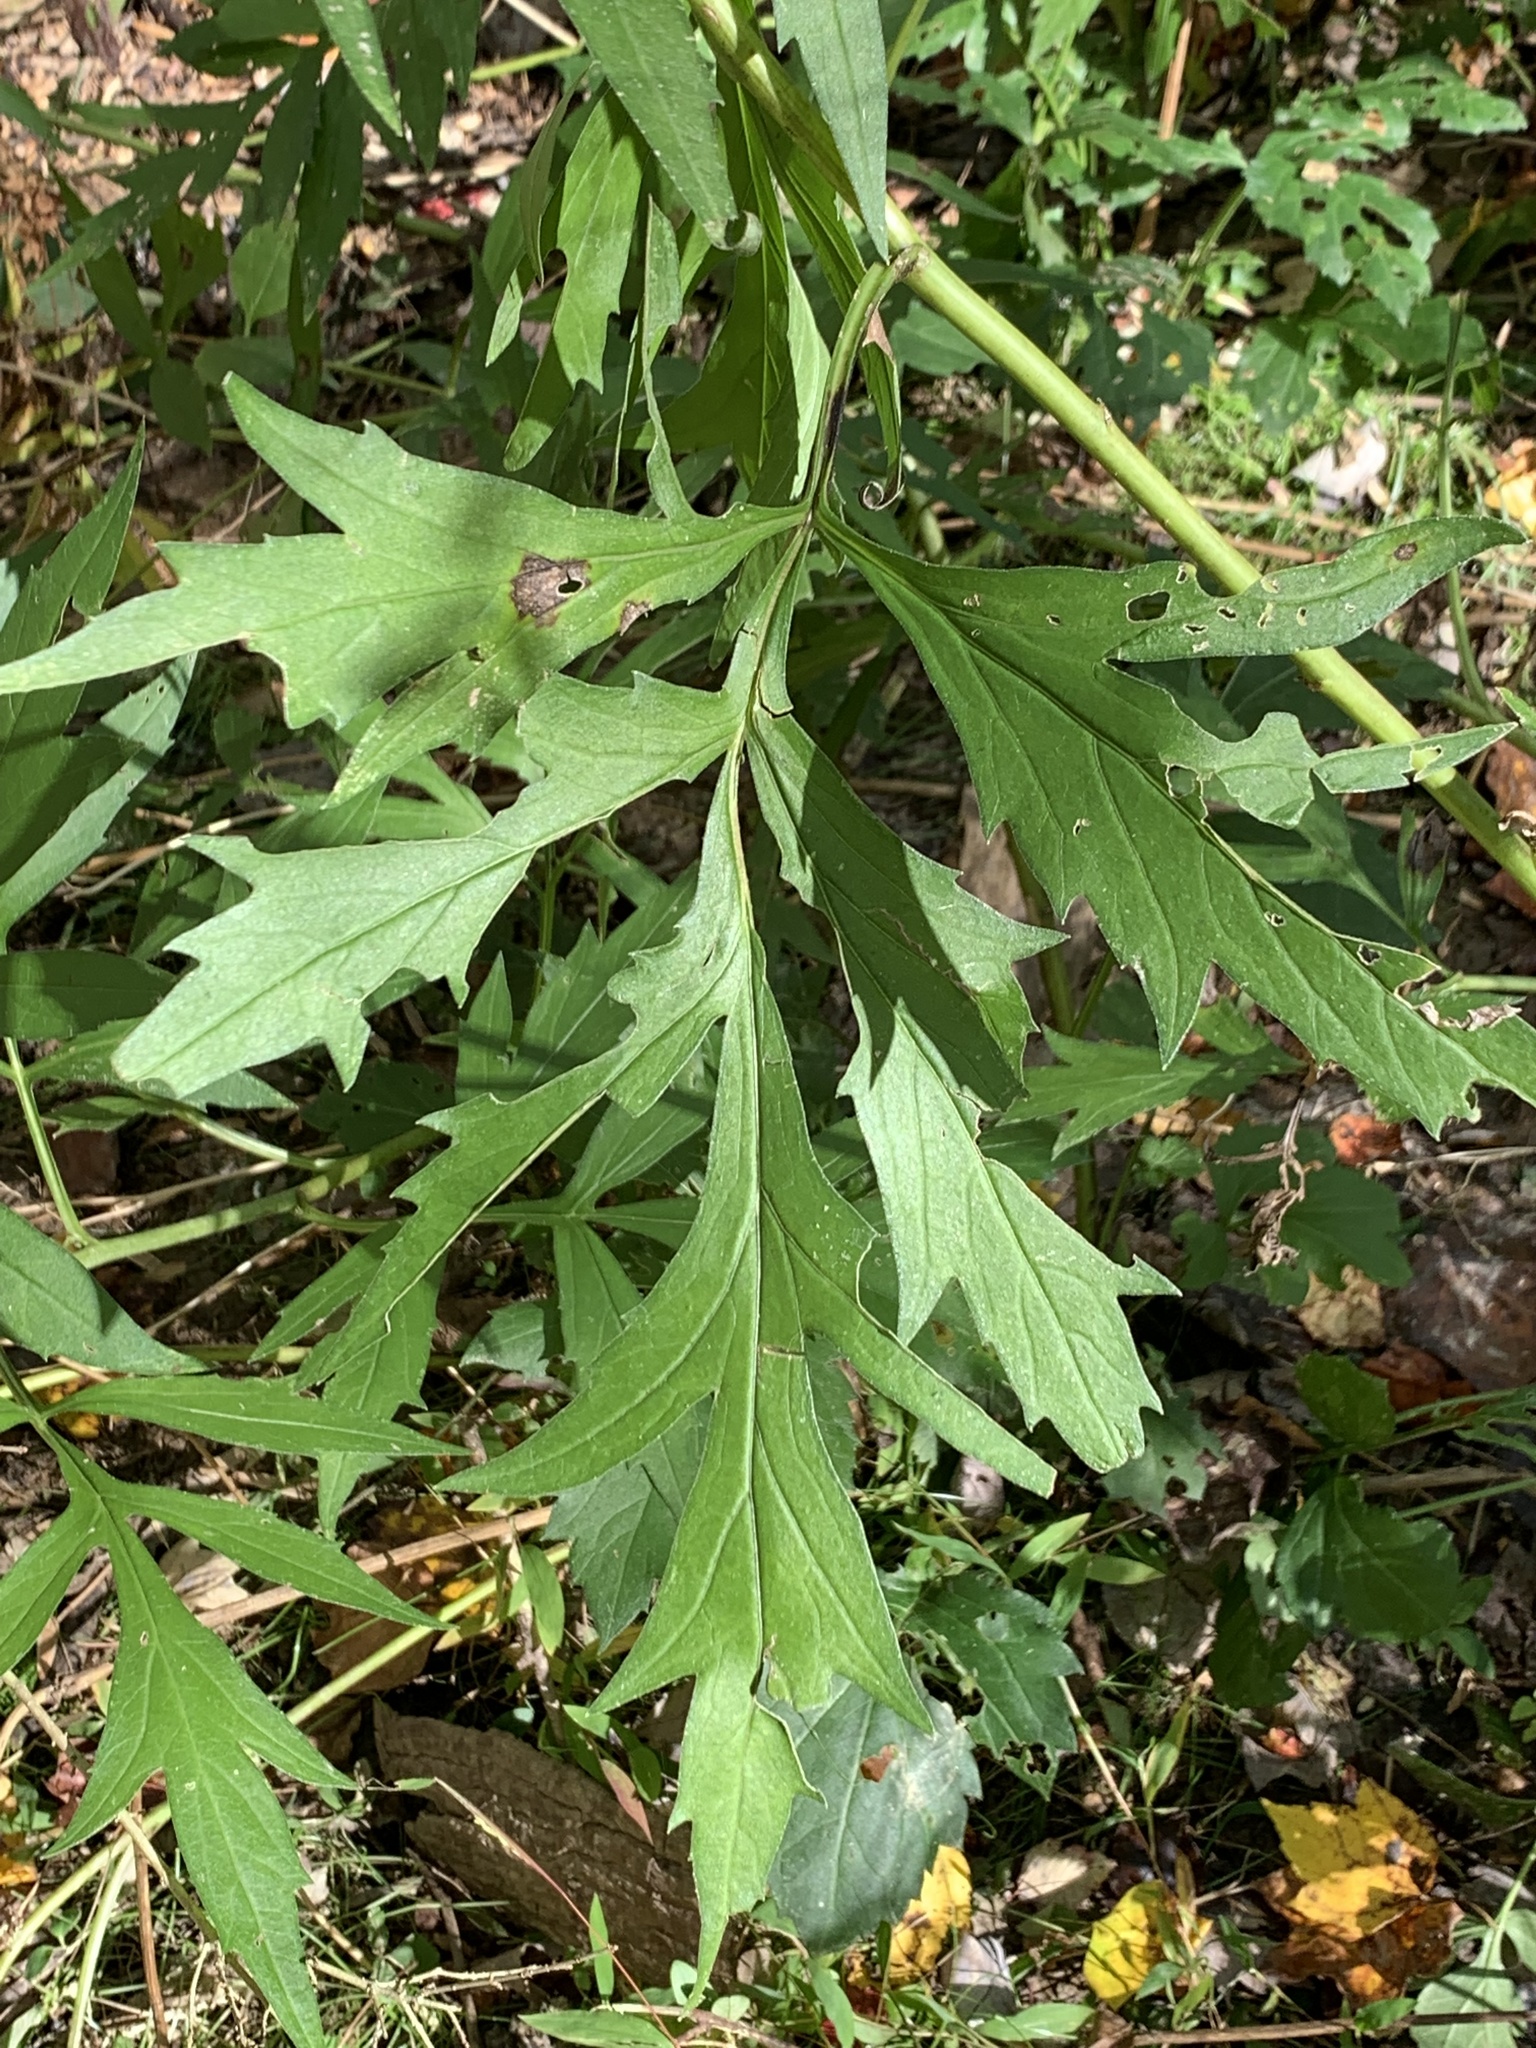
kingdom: Plantae
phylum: Tracheophyta
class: Magnoliopsida
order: Asterales
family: Asteraceae
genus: Rudbeckia
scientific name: Rudbeckia laciniata
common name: Coneflower
